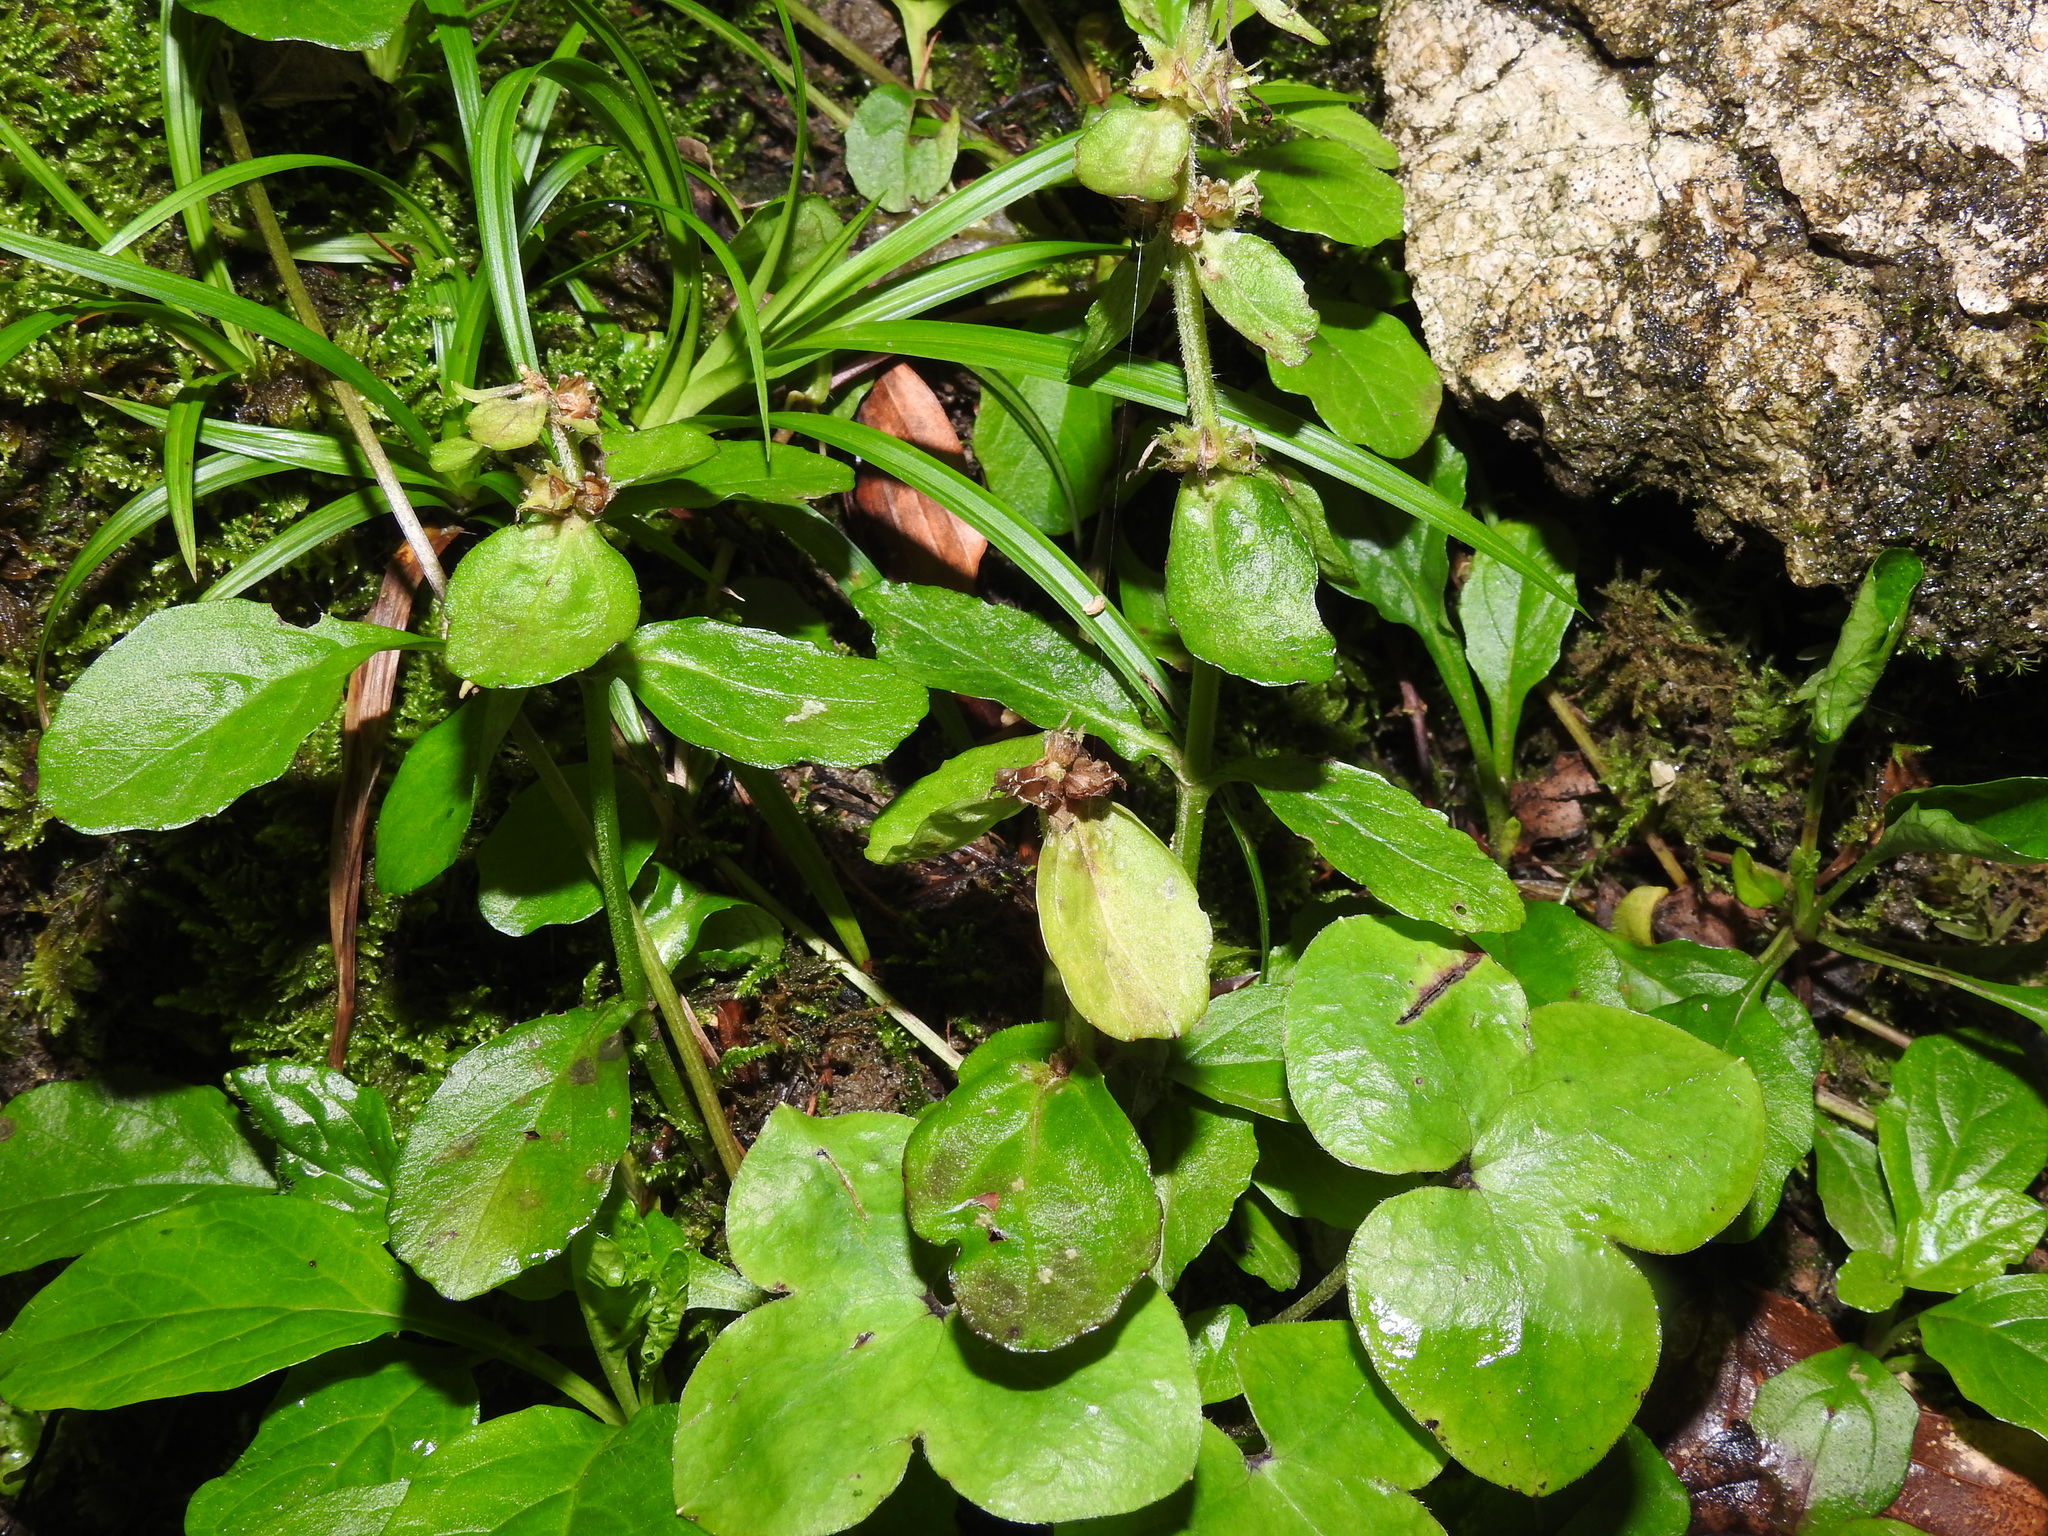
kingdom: Plantae
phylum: Tracheophyta
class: Magnoliopsida
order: Lamiales
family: Lamiaceae
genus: Ajuga
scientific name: Ajuga reptans
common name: Bugle
